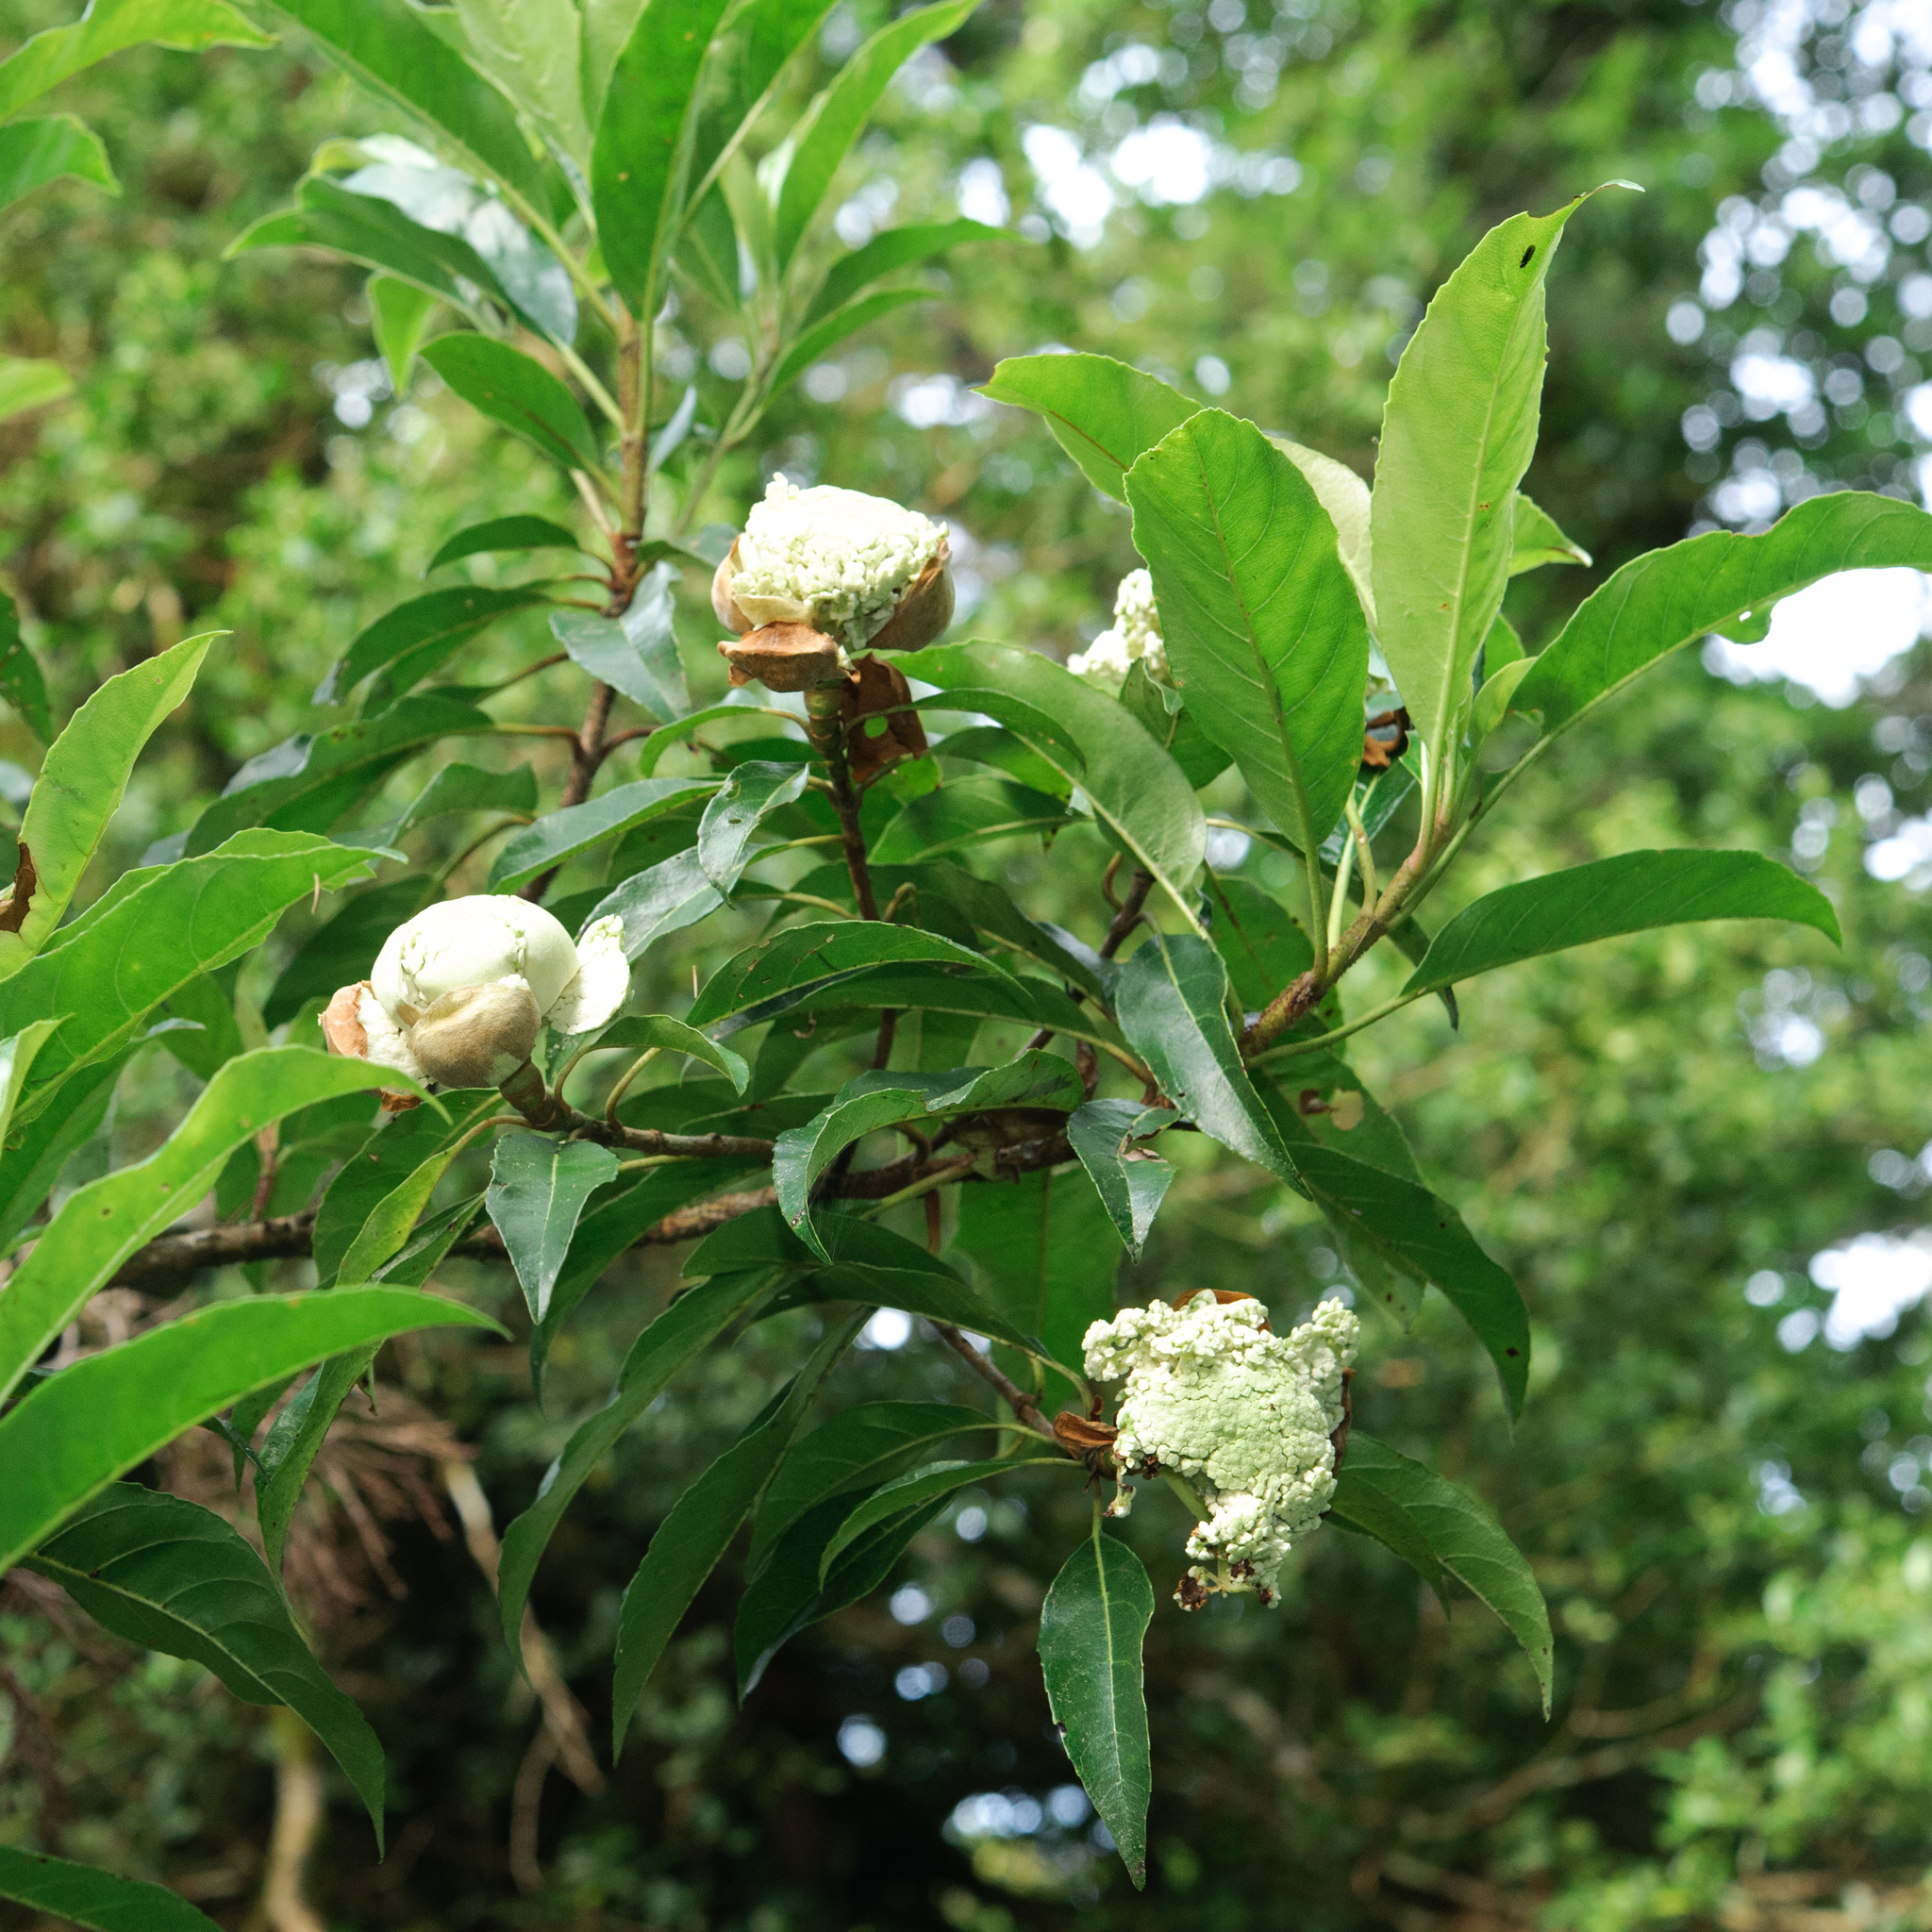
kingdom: Plantae
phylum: Tracheophyta
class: Magnoliopsida
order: Cornales
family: Hydrangeaceae
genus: Hydrangea
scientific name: Hydrangea integrifolia
